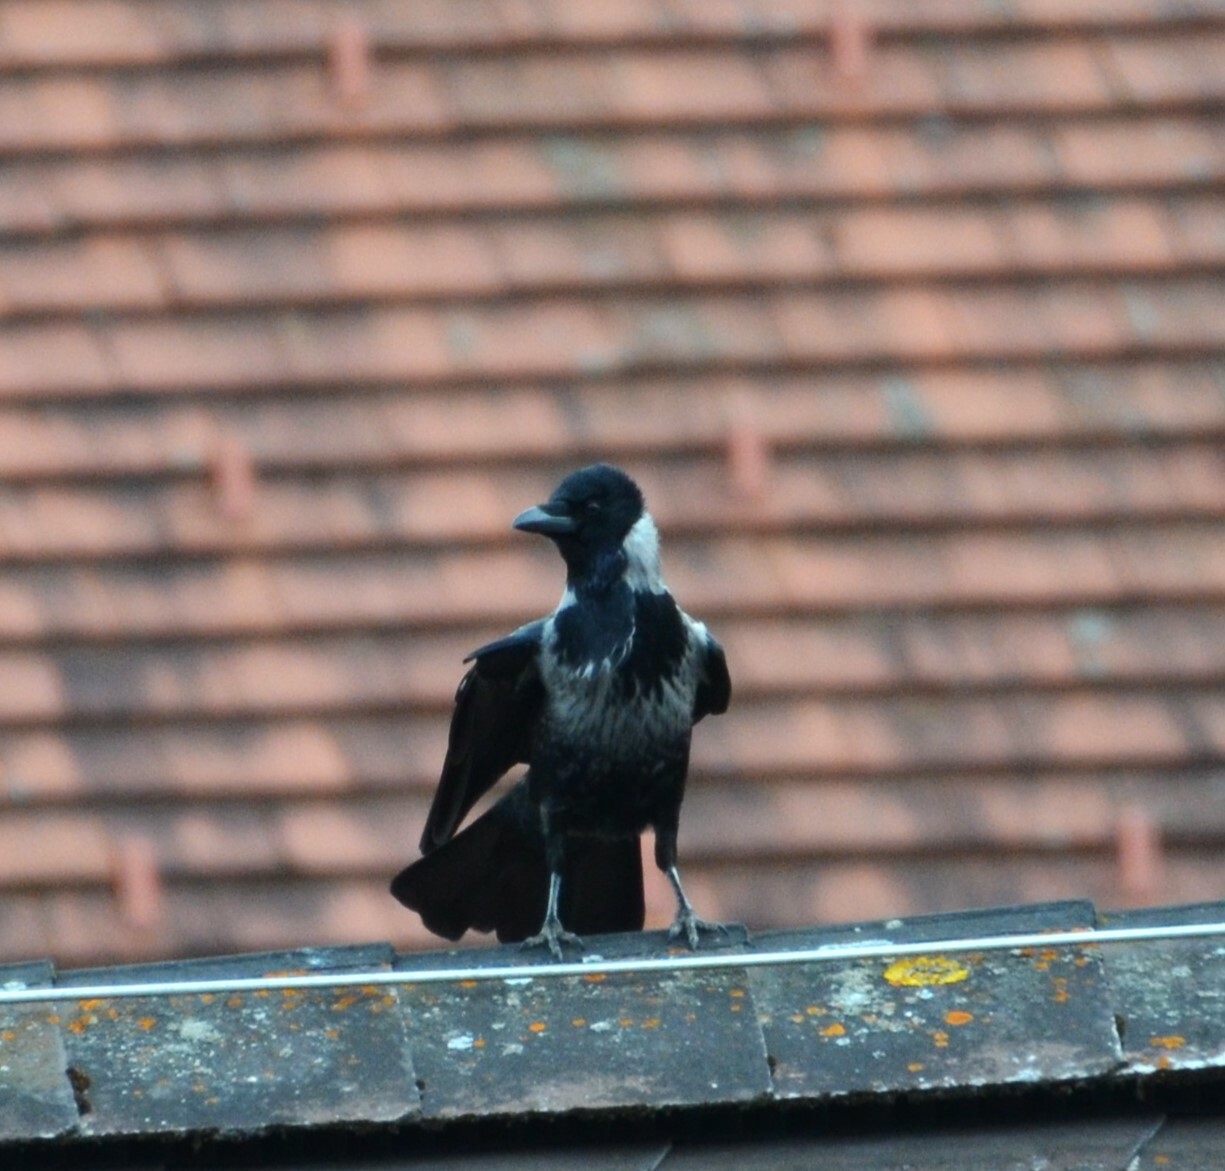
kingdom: Animalia
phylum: Chordata
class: Aves
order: Passeriformes
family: Corvidae
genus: Corvus
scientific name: Corvus
